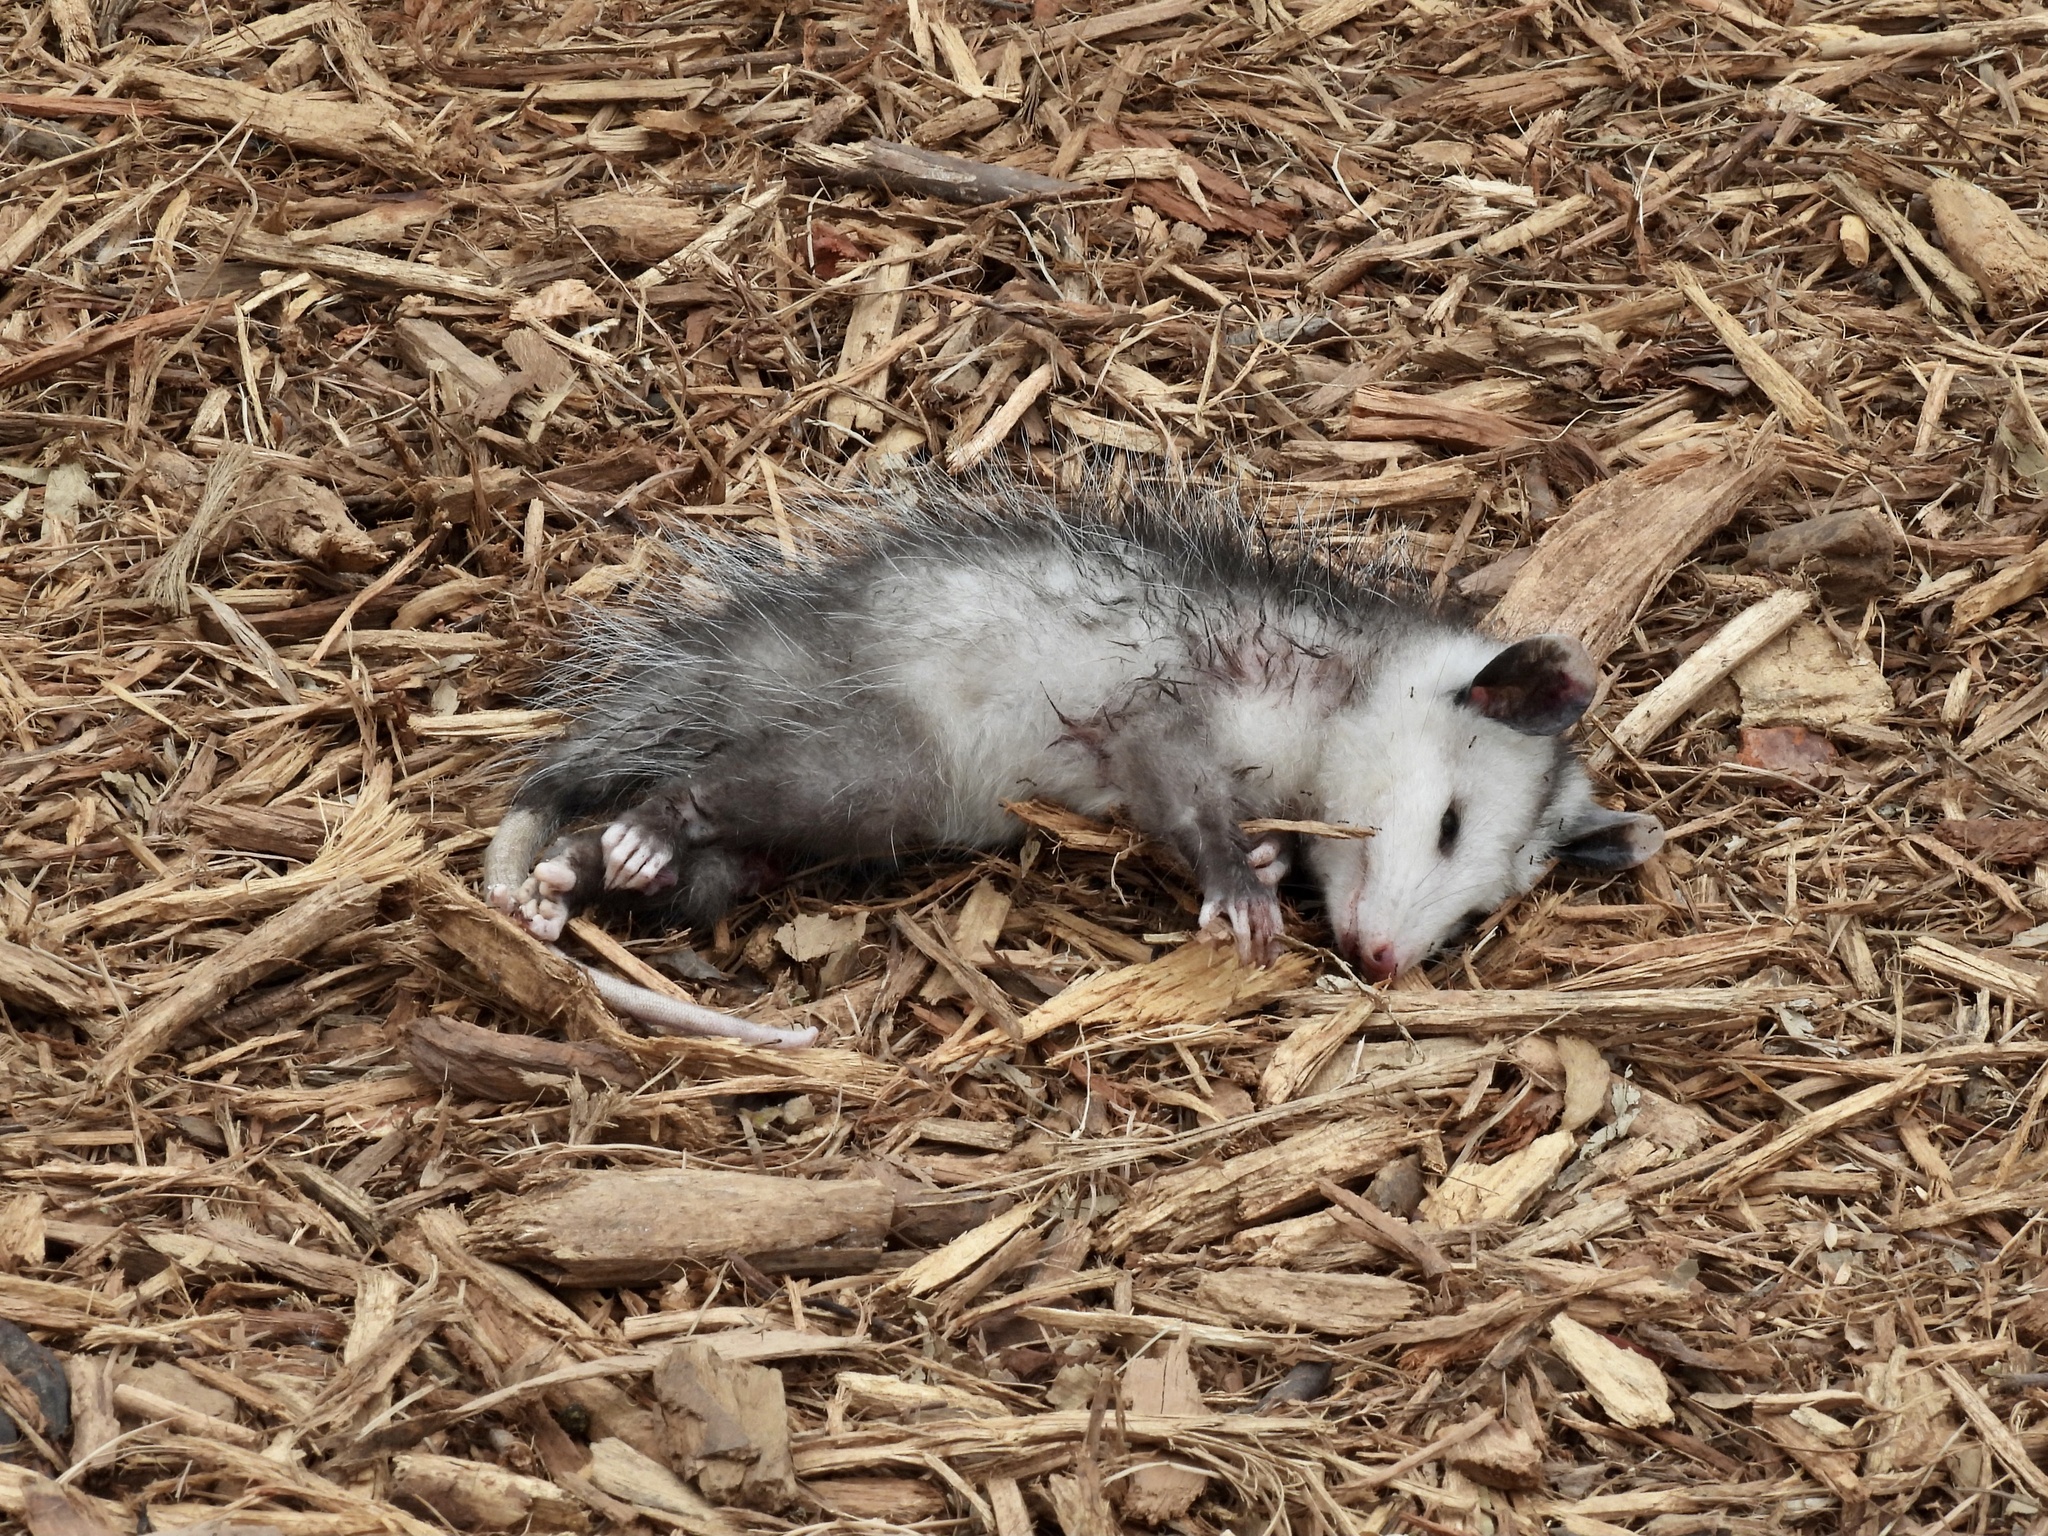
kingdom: Animalia
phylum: Chordata
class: Mammalia
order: Didelphimorphia
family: Didelphidae
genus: Didelphis
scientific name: Didelphis virginiana
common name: Virginia opossum
